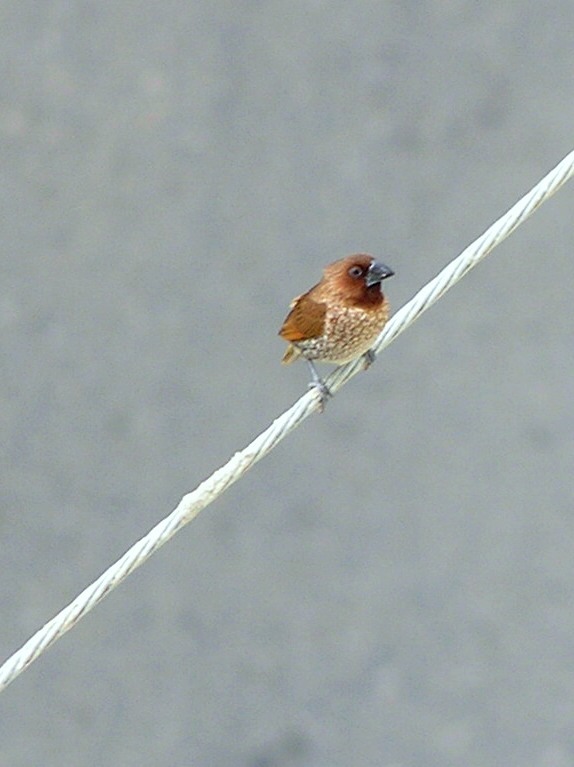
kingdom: Animalia
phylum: Chordata
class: Aves
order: Passeriformes
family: Estrildidae
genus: Lonchura
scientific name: Lonchura punctulata
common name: Scaly-breasted munia
